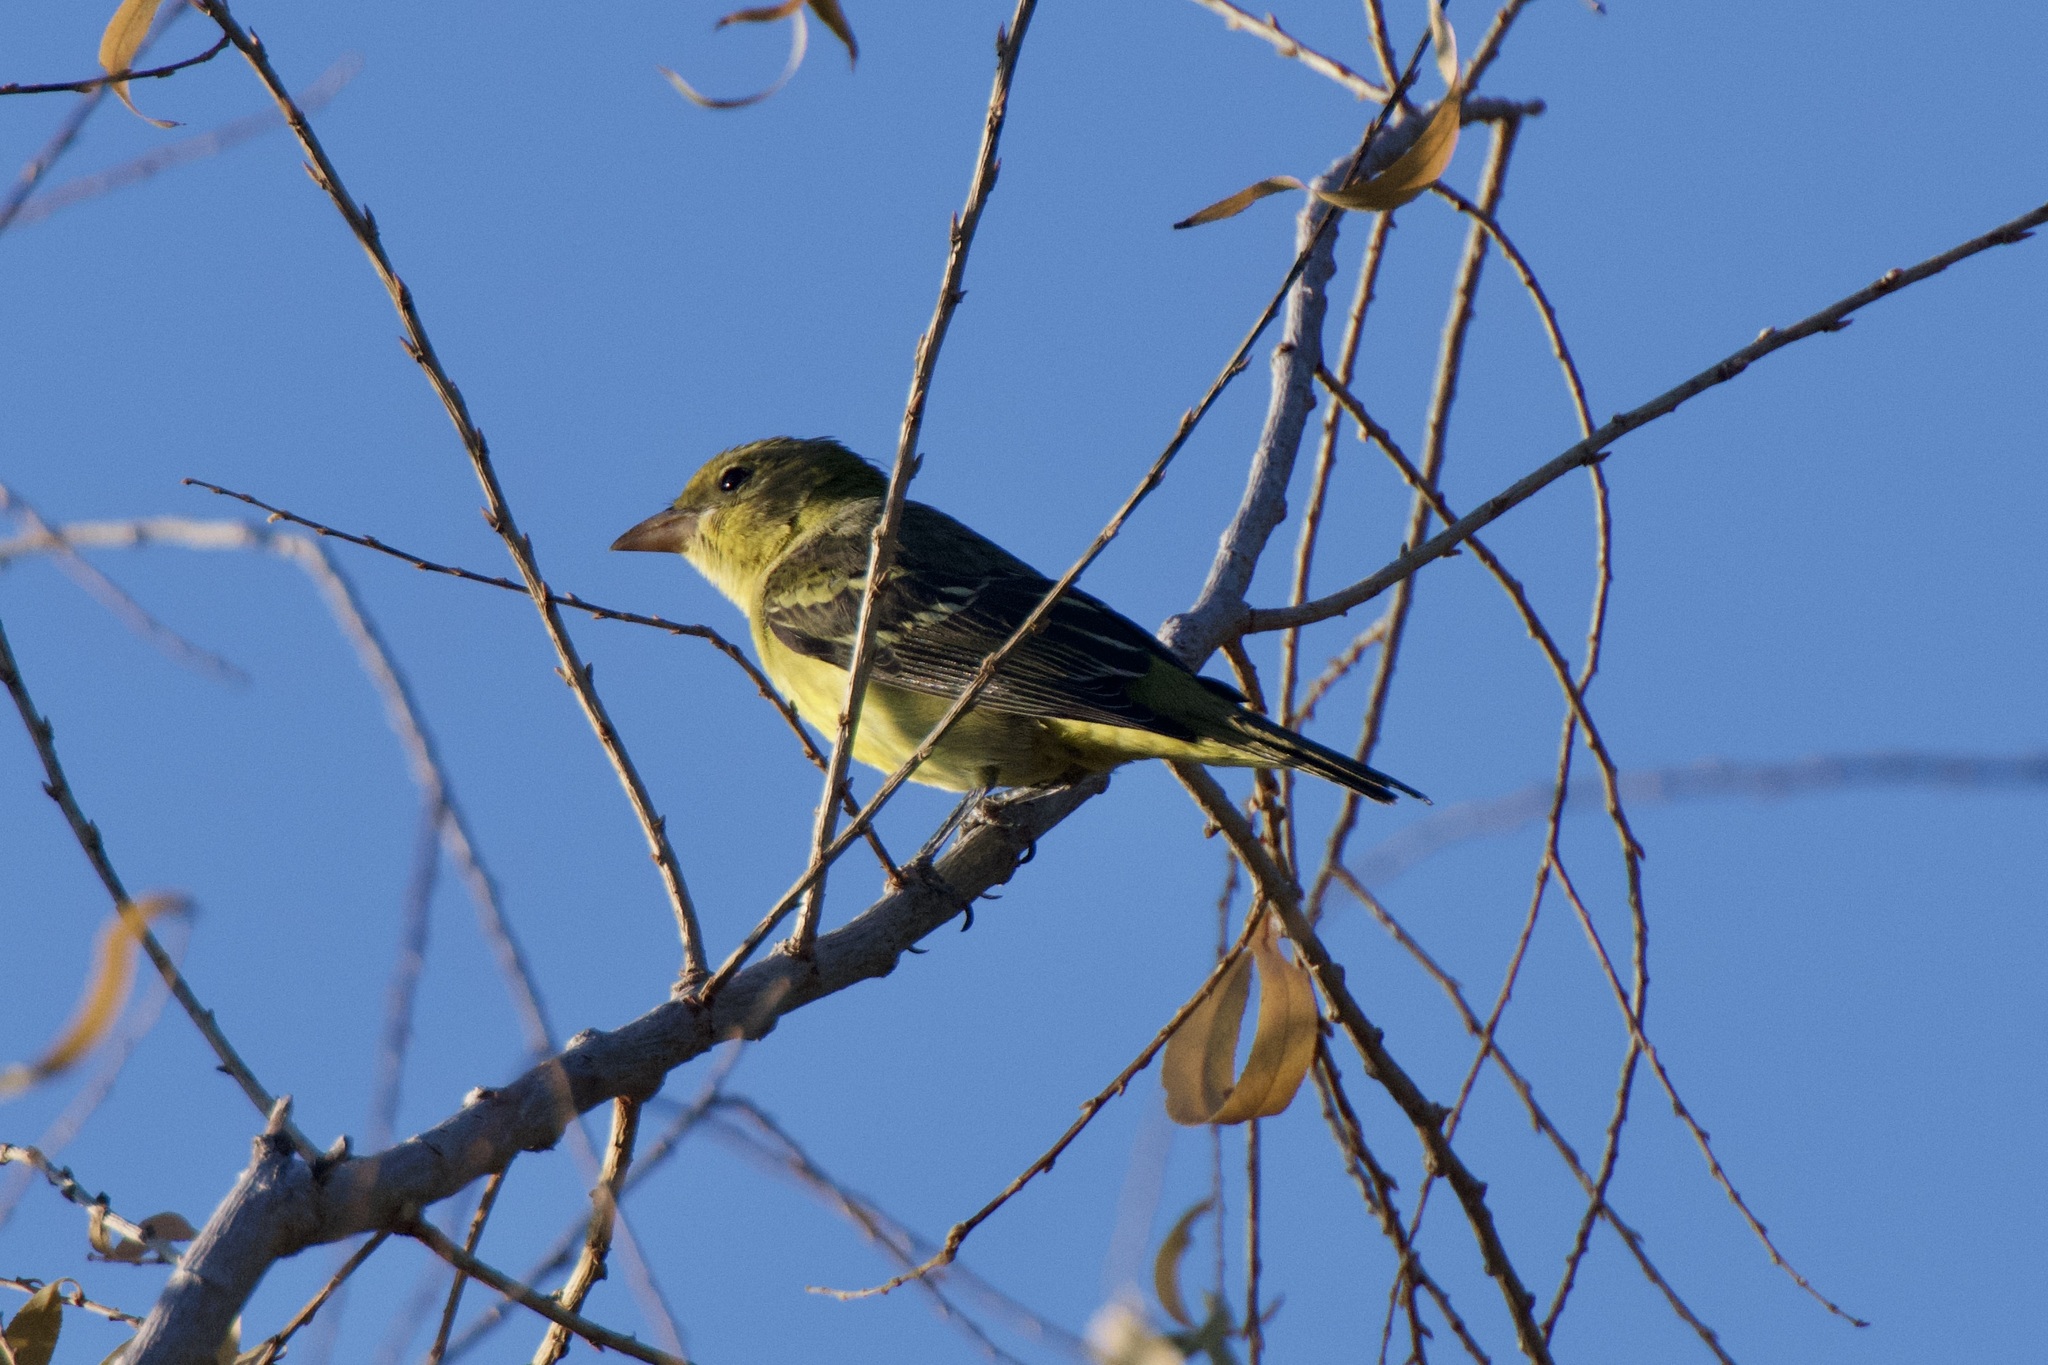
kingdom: Animalia
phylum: Chordata
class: Aves
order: Passeriformes
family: Cardinalidae
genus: Piranga
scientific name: Piranga ludoviciana
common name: Western tanager
